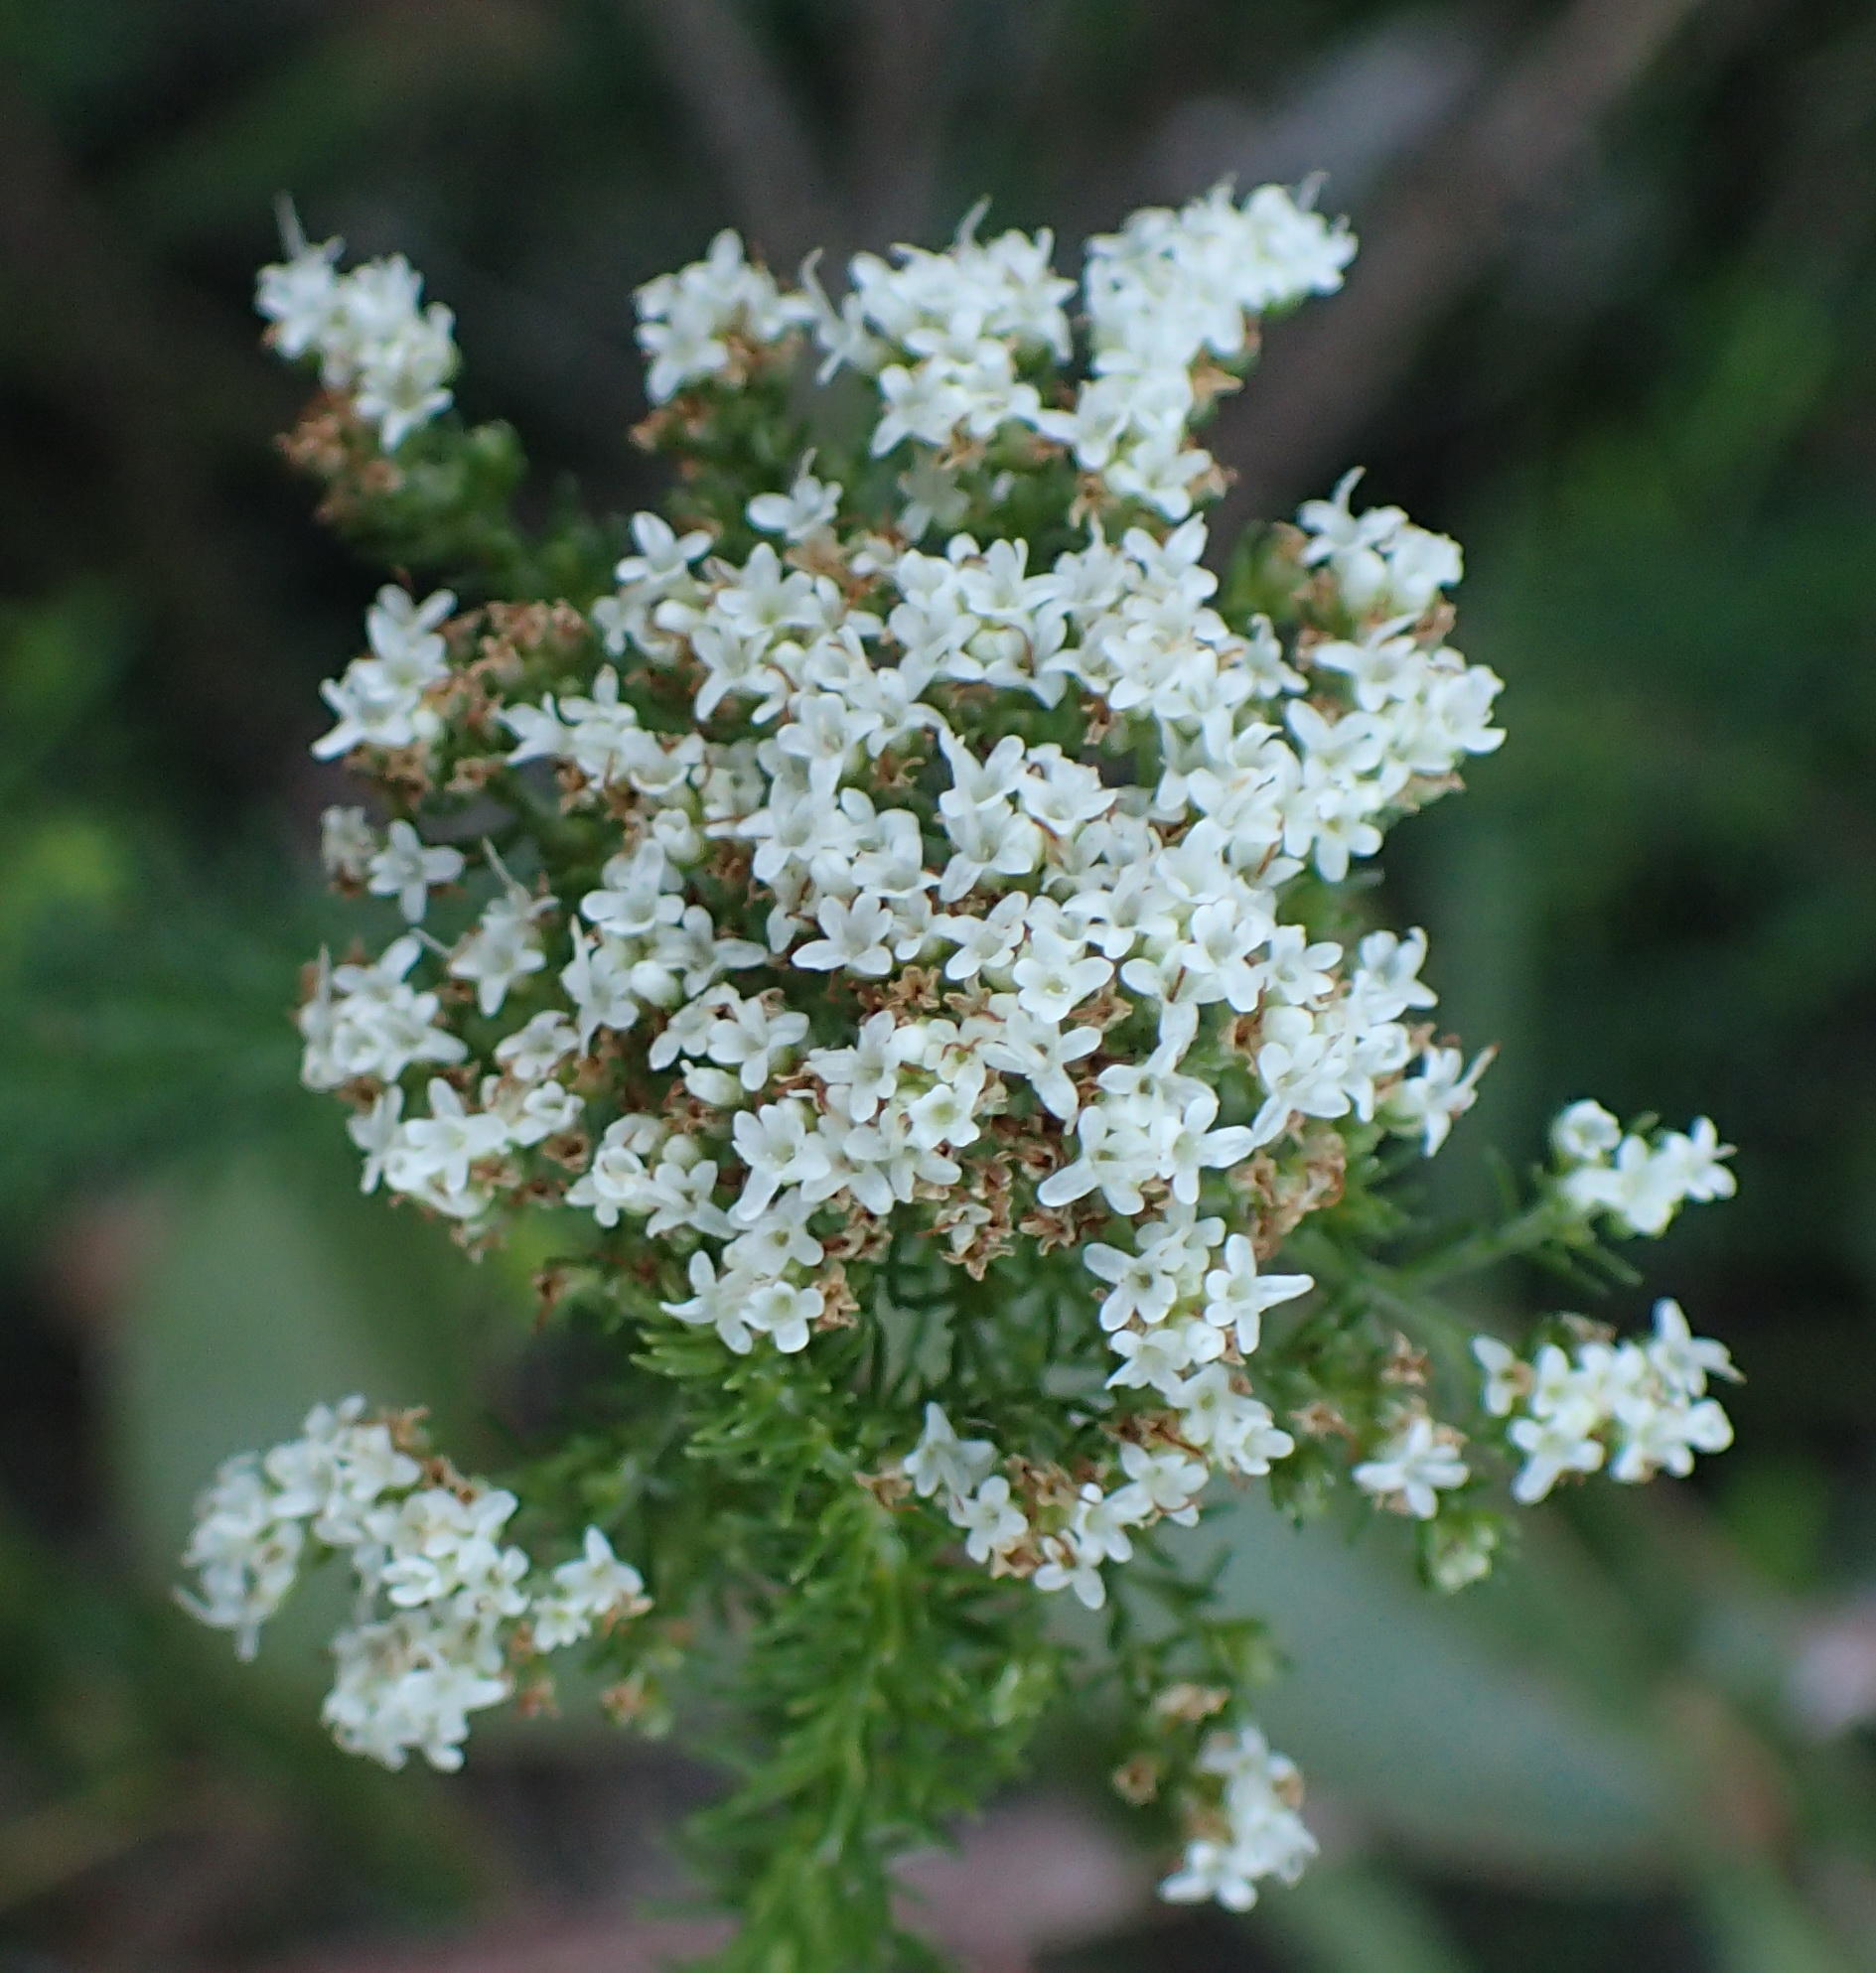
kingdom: Plantae
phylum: Tracheophyta
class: Magnoliopsida
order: Lamiales
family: Scrophulariaceae
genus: Selago
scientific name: Selago corymbosa
